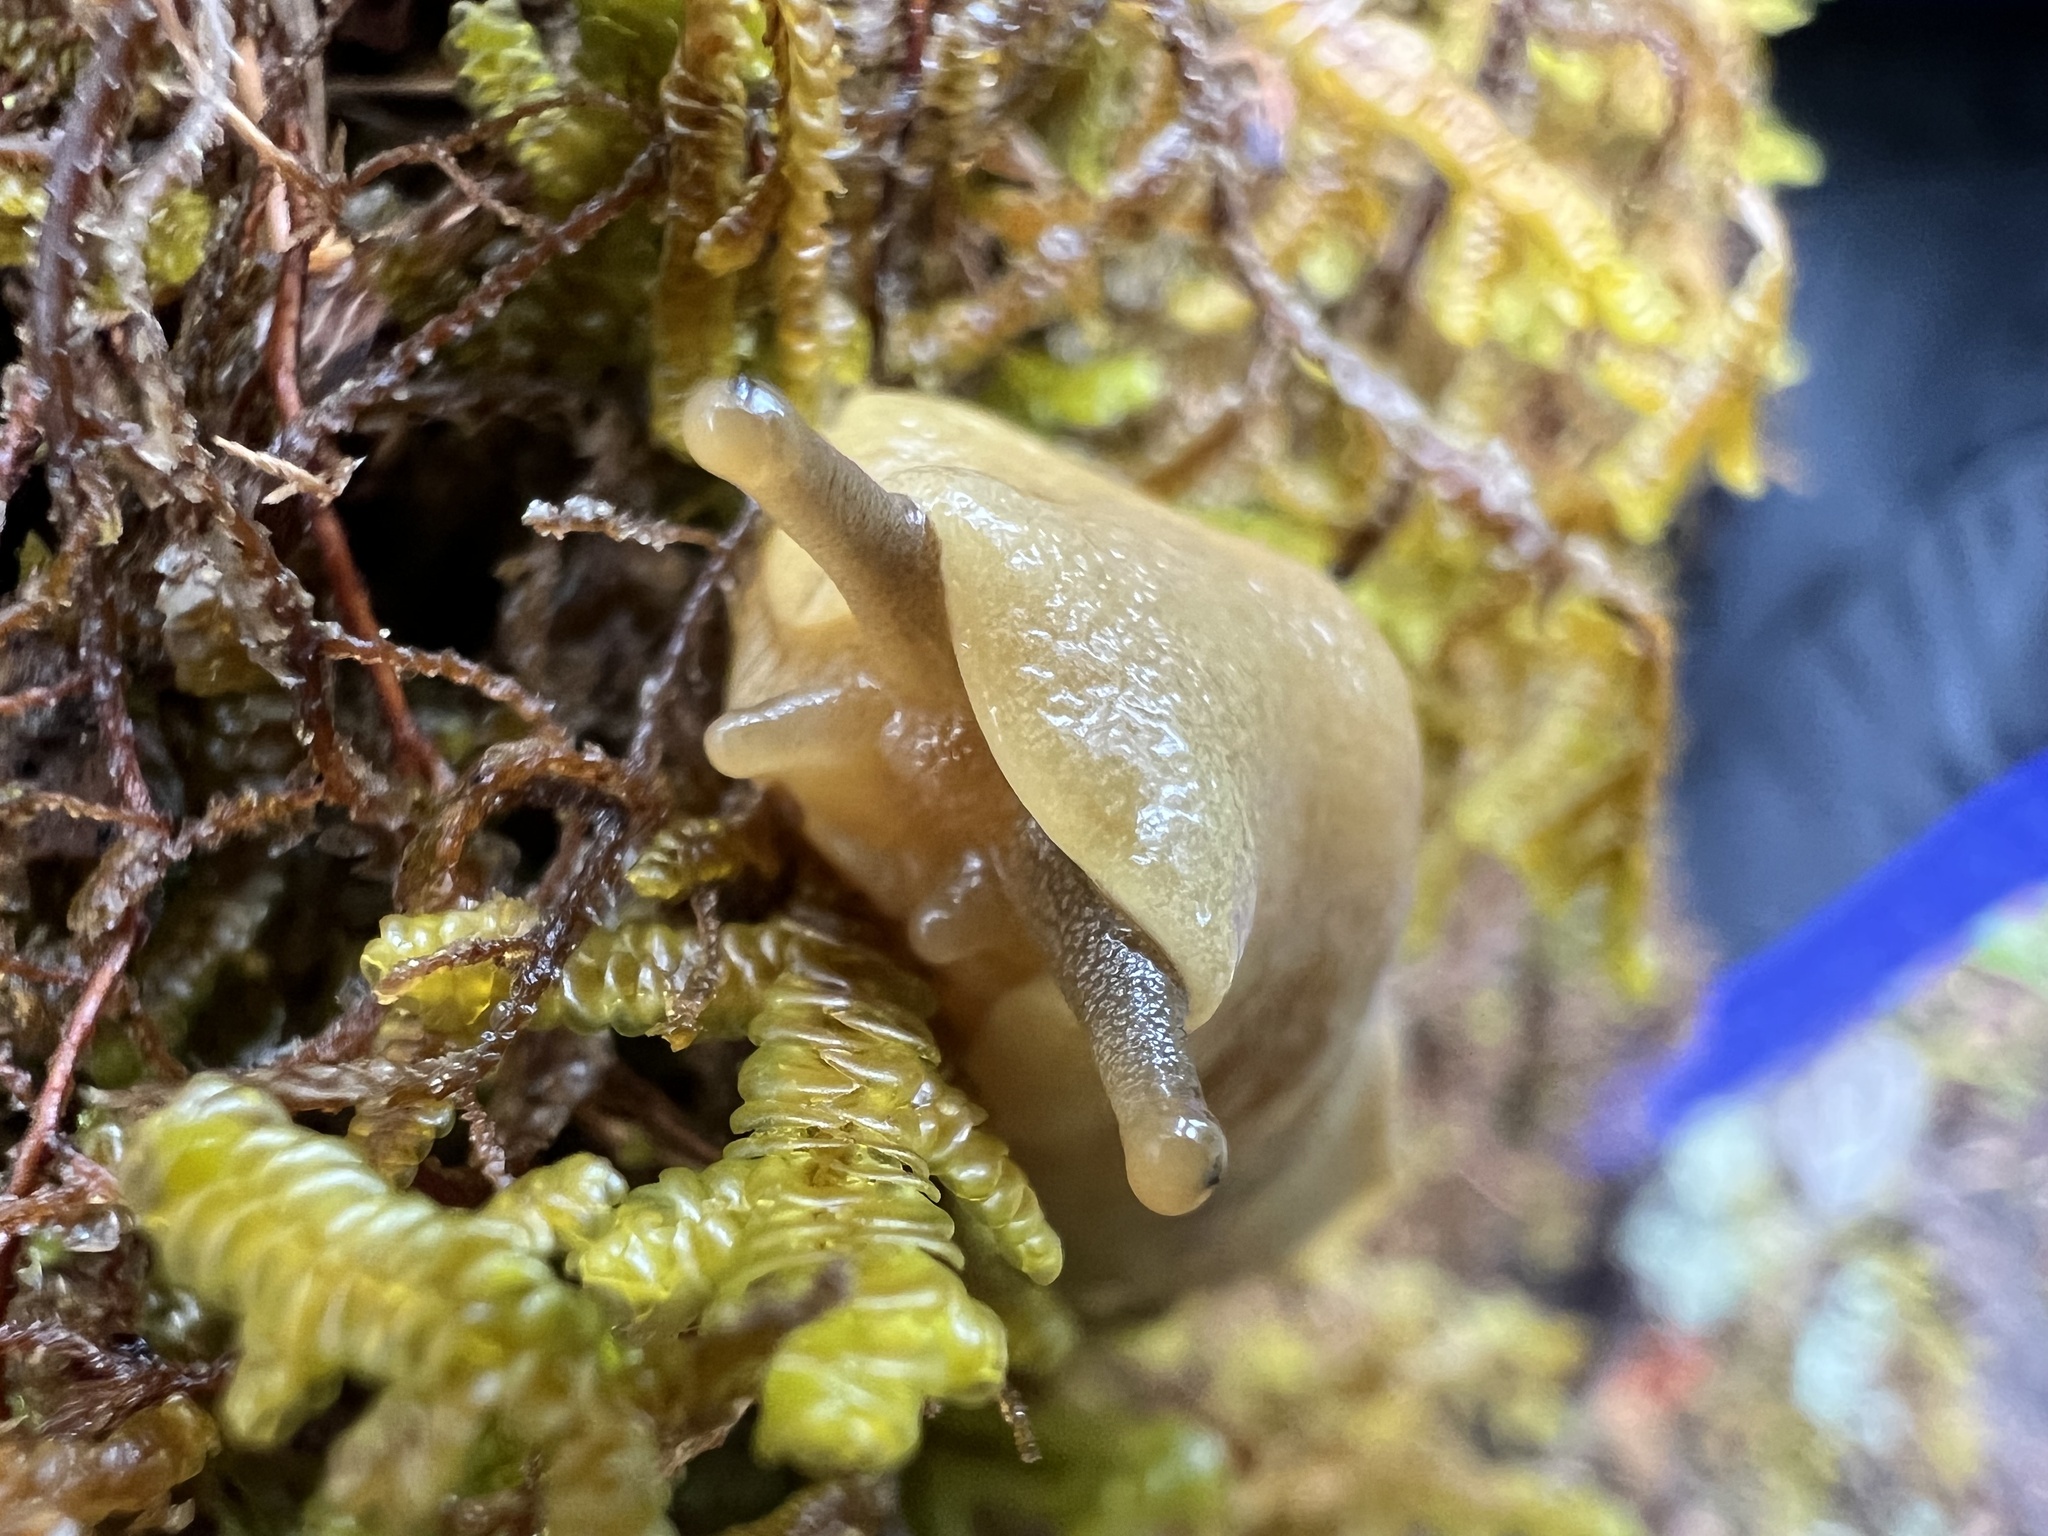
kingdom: Animalia
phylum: Mollusca
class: Gastropoda
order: Stylommatophora
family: Ariolimacidae
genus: Ariolimax
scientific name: Ariolimax columbianus
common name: Pacific banana slug
